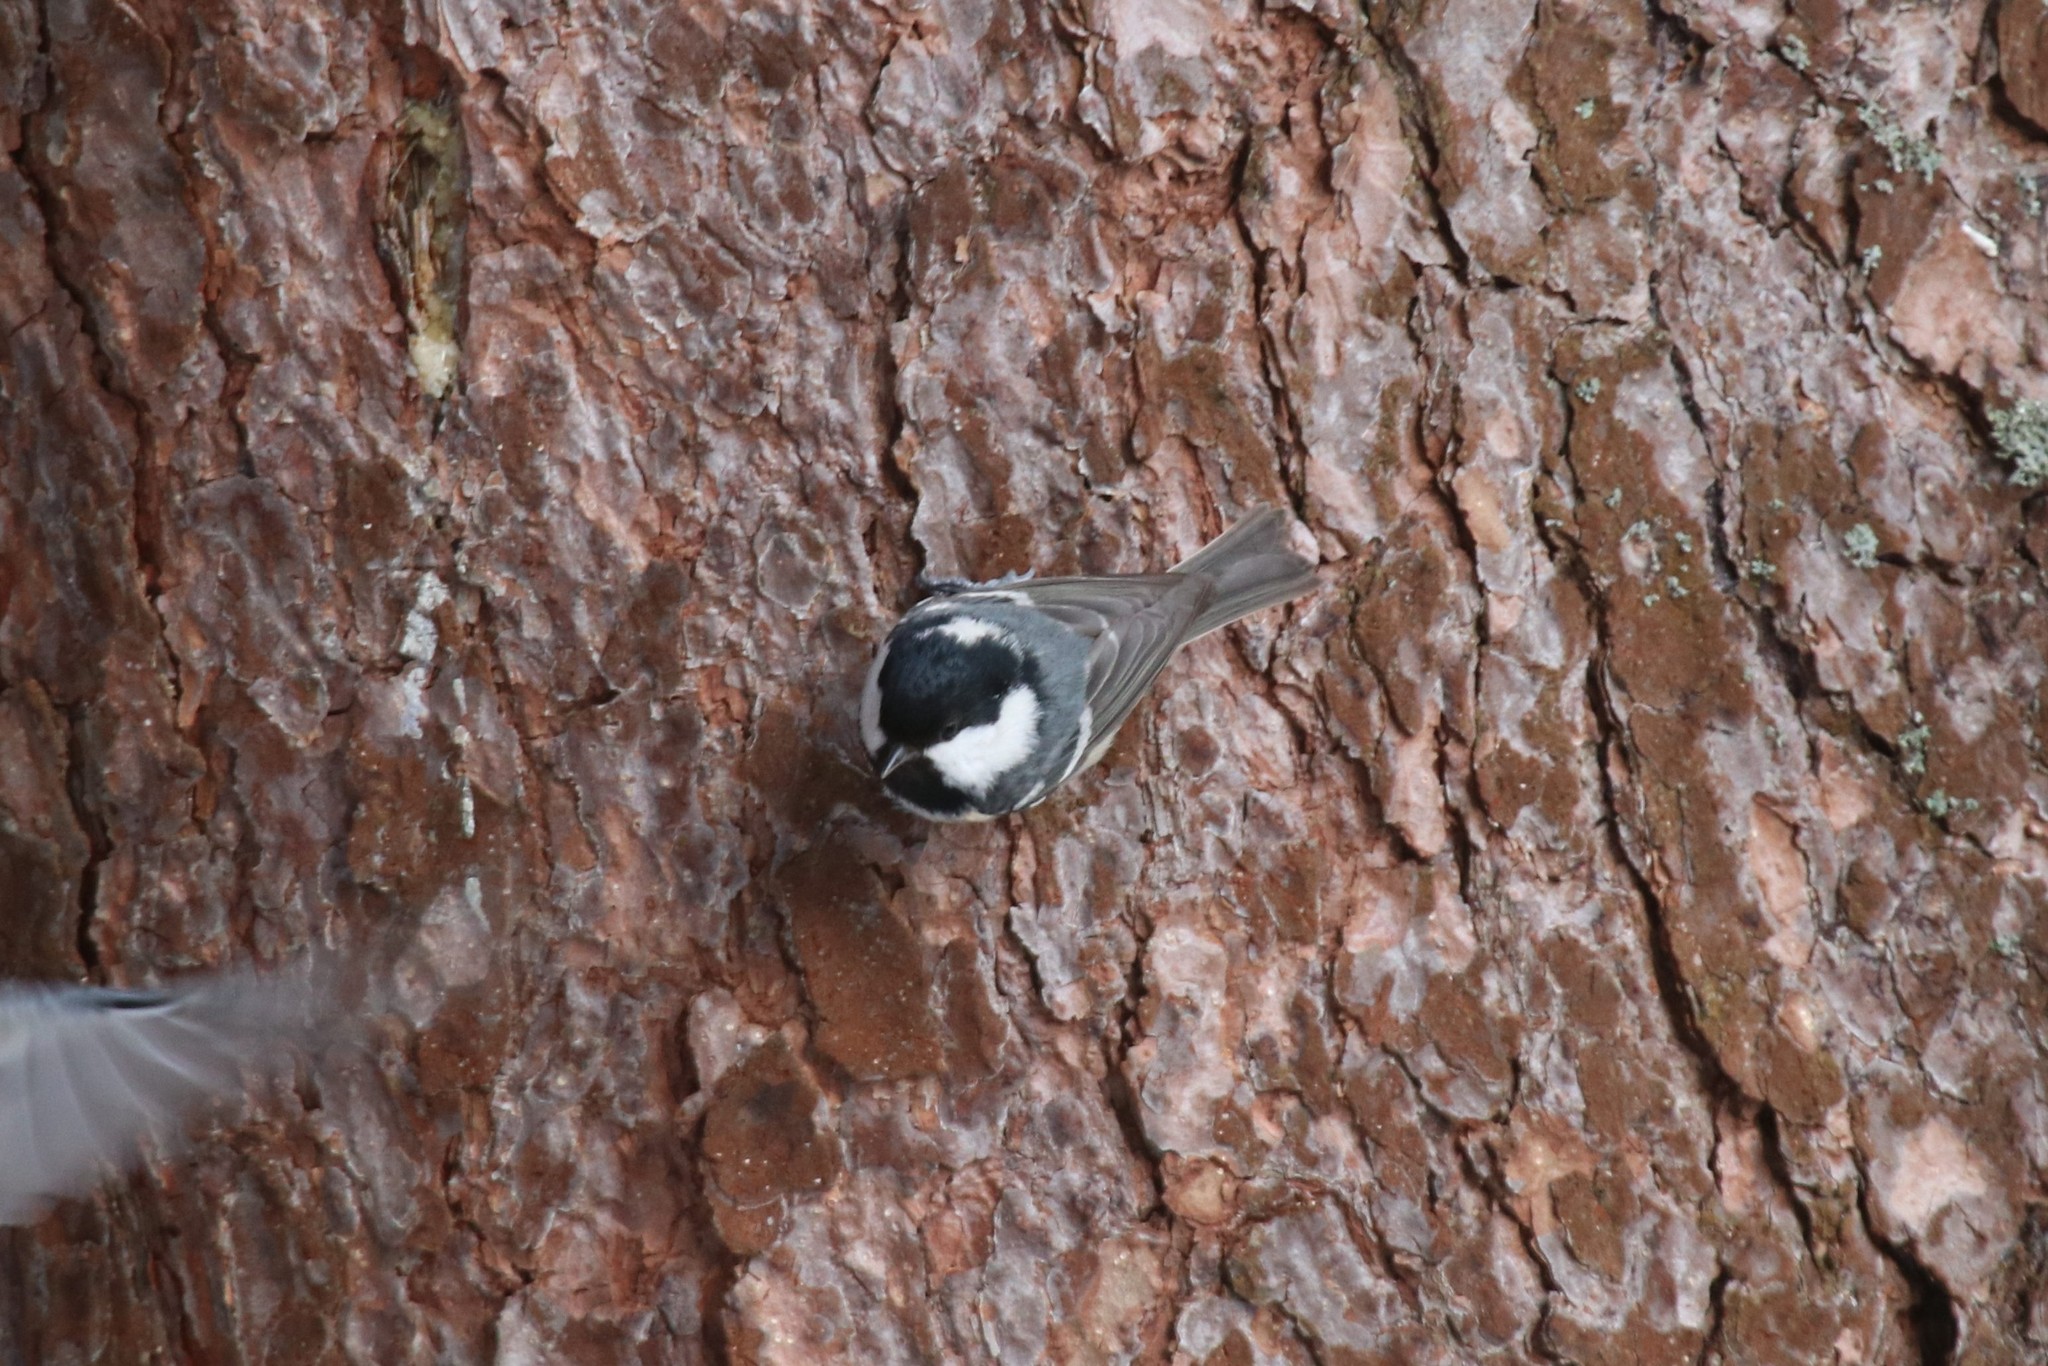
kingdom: Animalia
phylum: Chordata
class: Aves
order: Passeriformes
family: Paridae
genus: Periparus
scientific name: Periparus ater
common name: Coal tit
